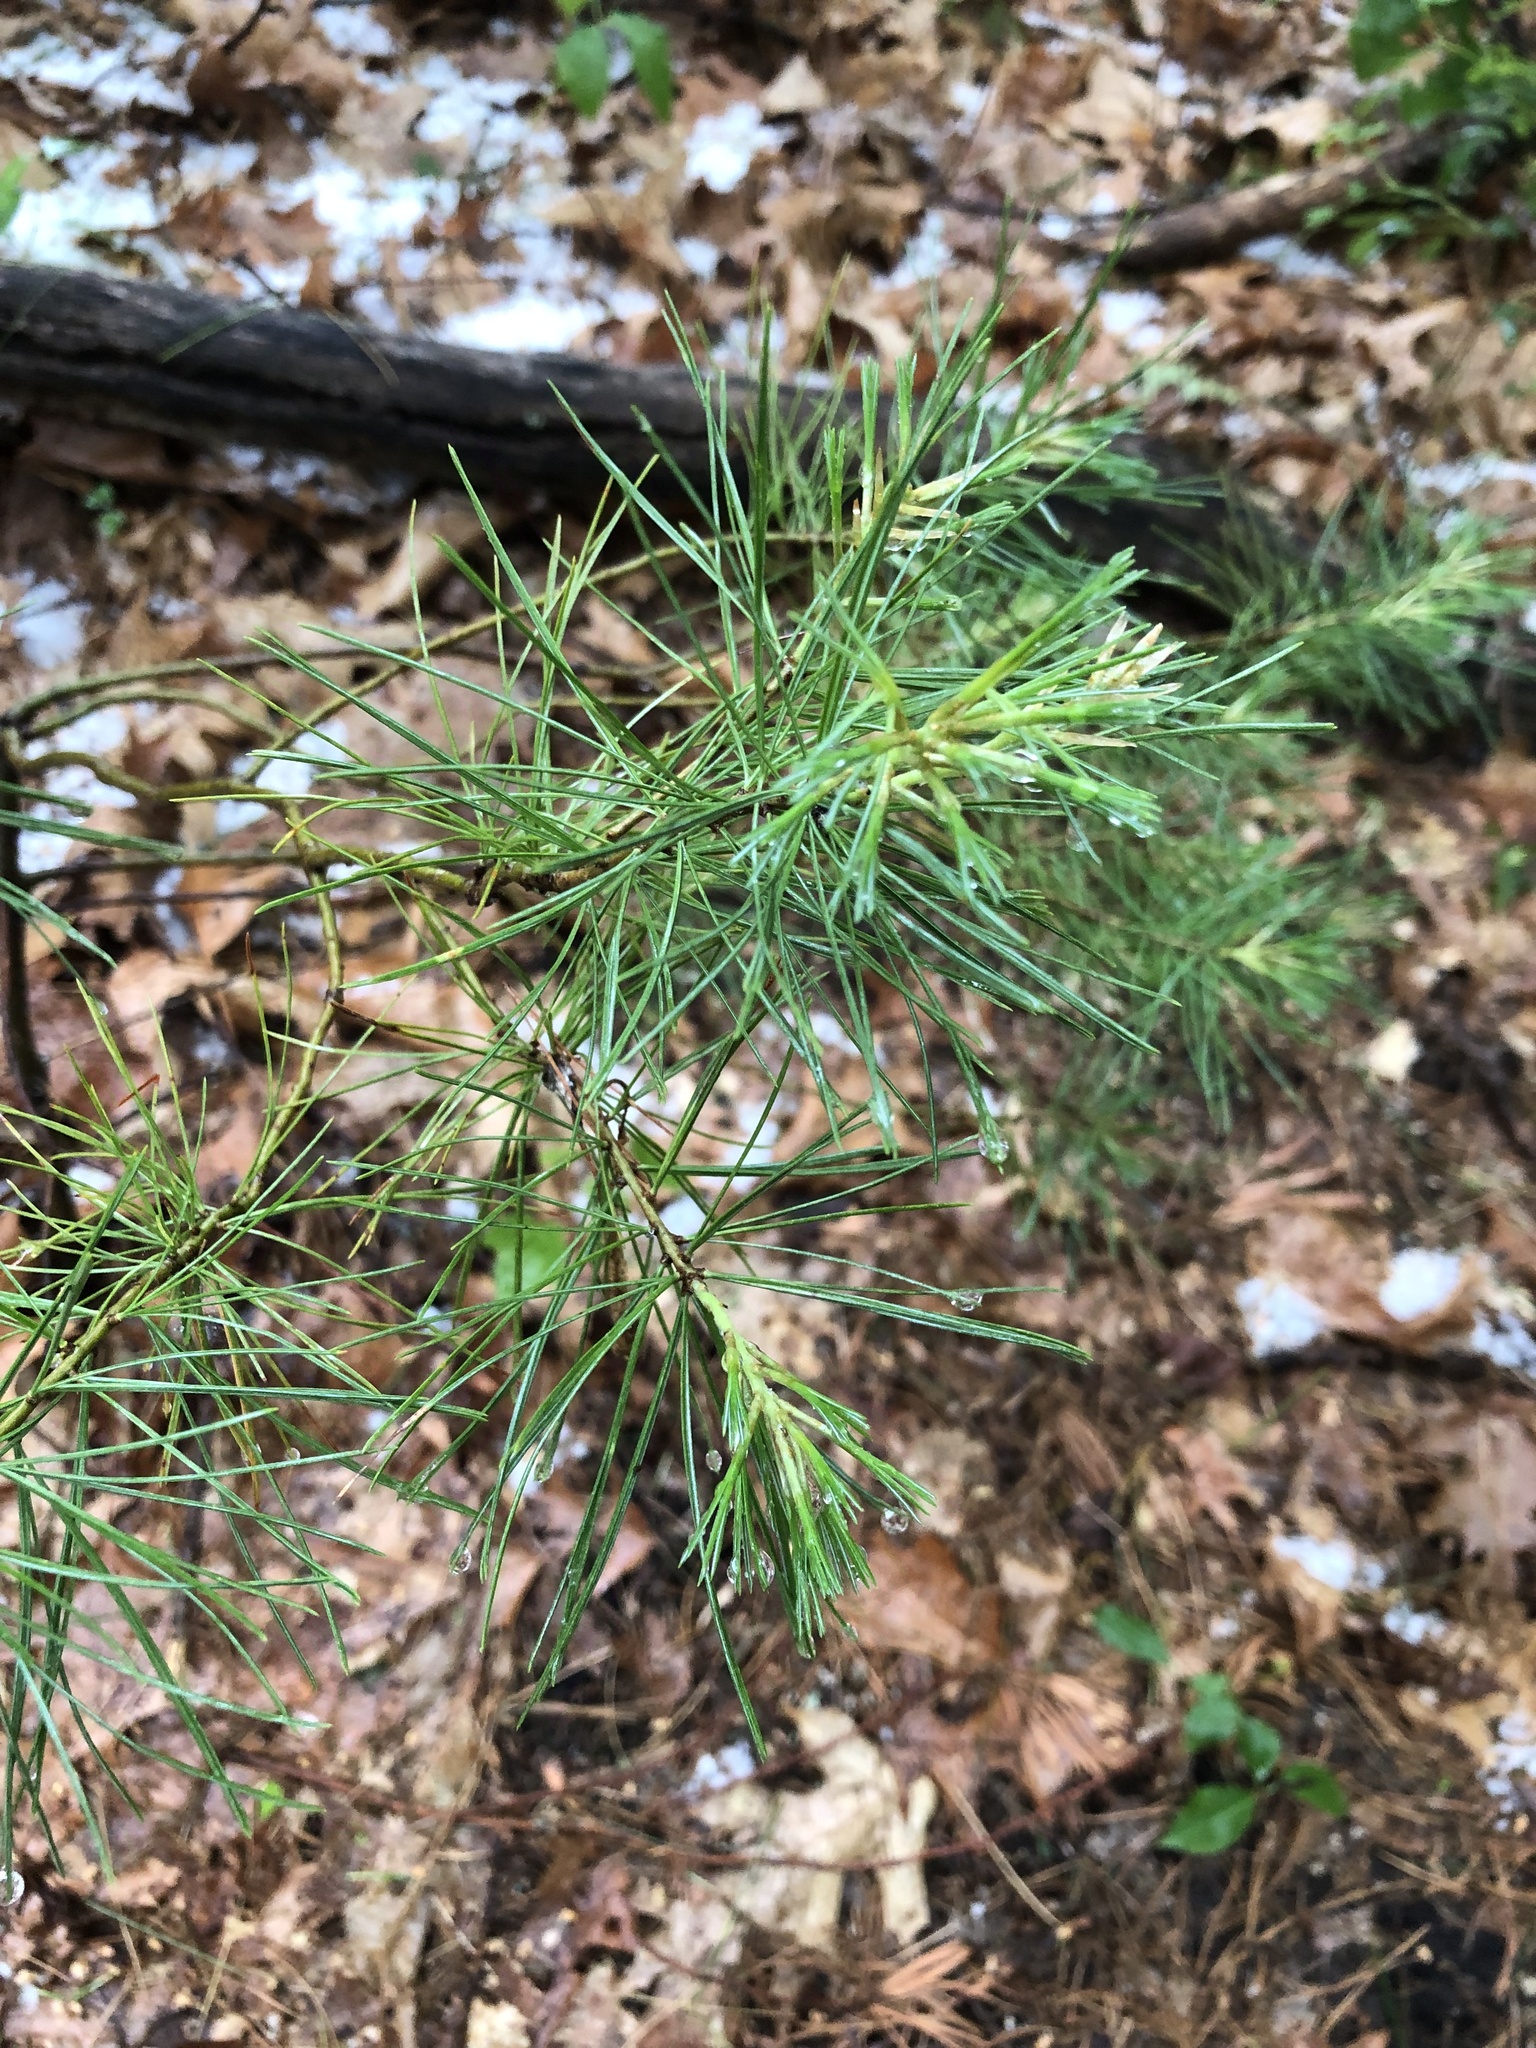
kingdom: Plantae
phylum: Tracheophyta
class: Pinopsida
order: Pinales
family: Pinaceae
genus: Pinus
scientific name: Pinus strobus
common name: Weymouth pine
